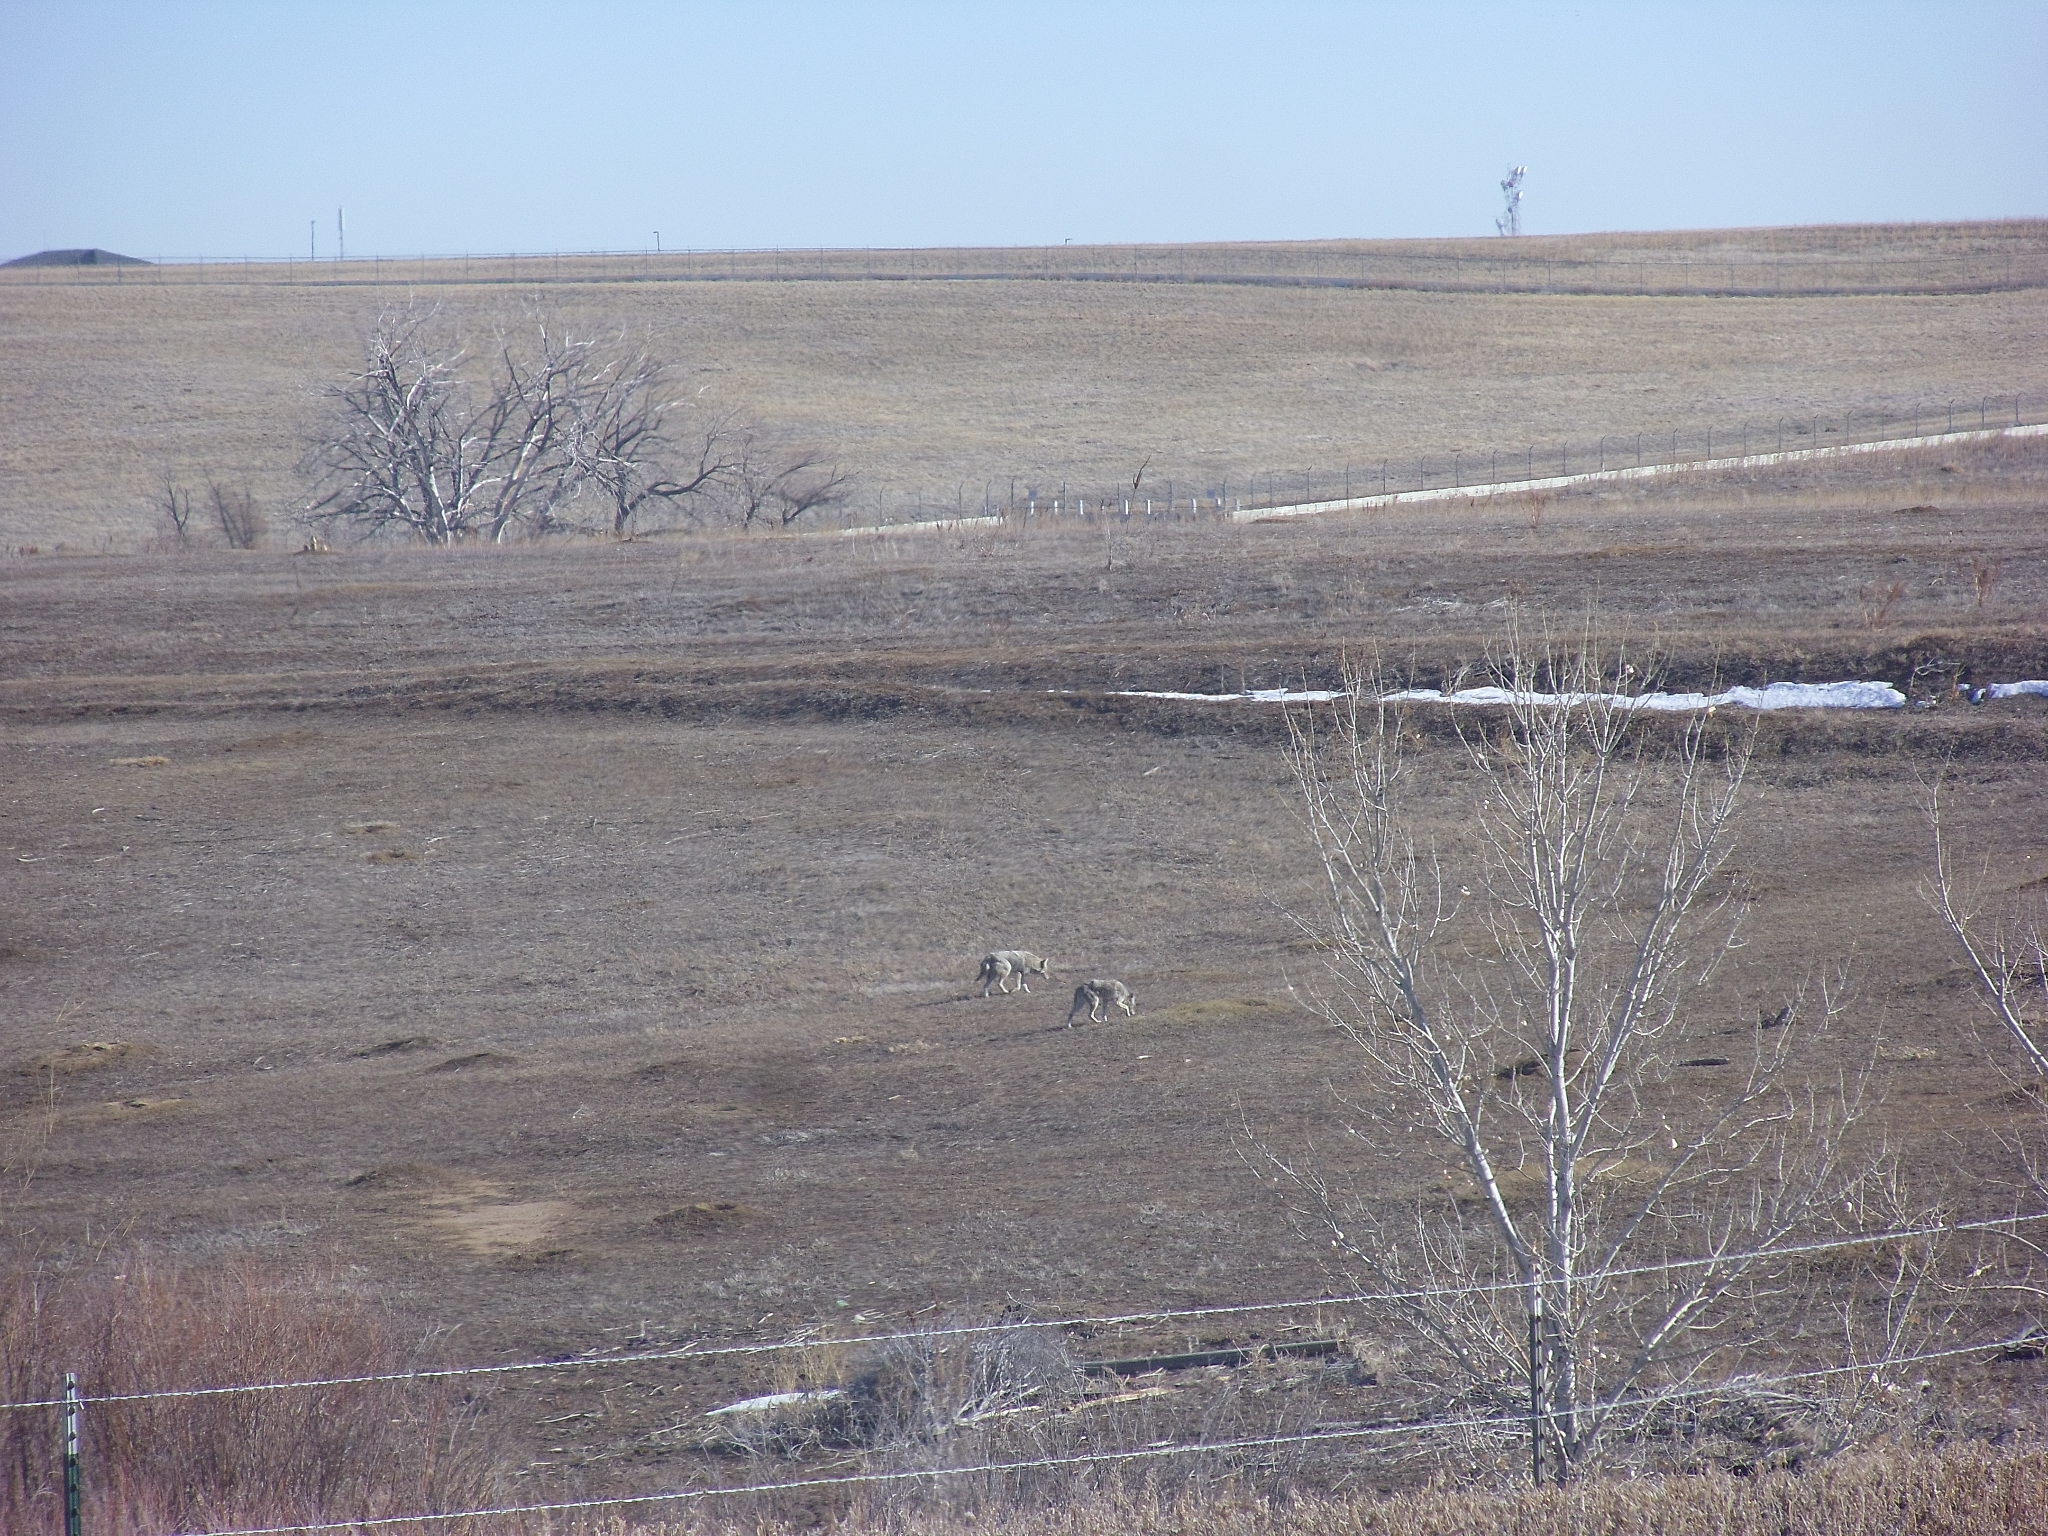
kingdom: Animalia
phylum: Chordata
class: Mammalia
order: Carnivora
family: Canidae
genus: Canis
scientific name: Canis latrans
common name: Coyote
